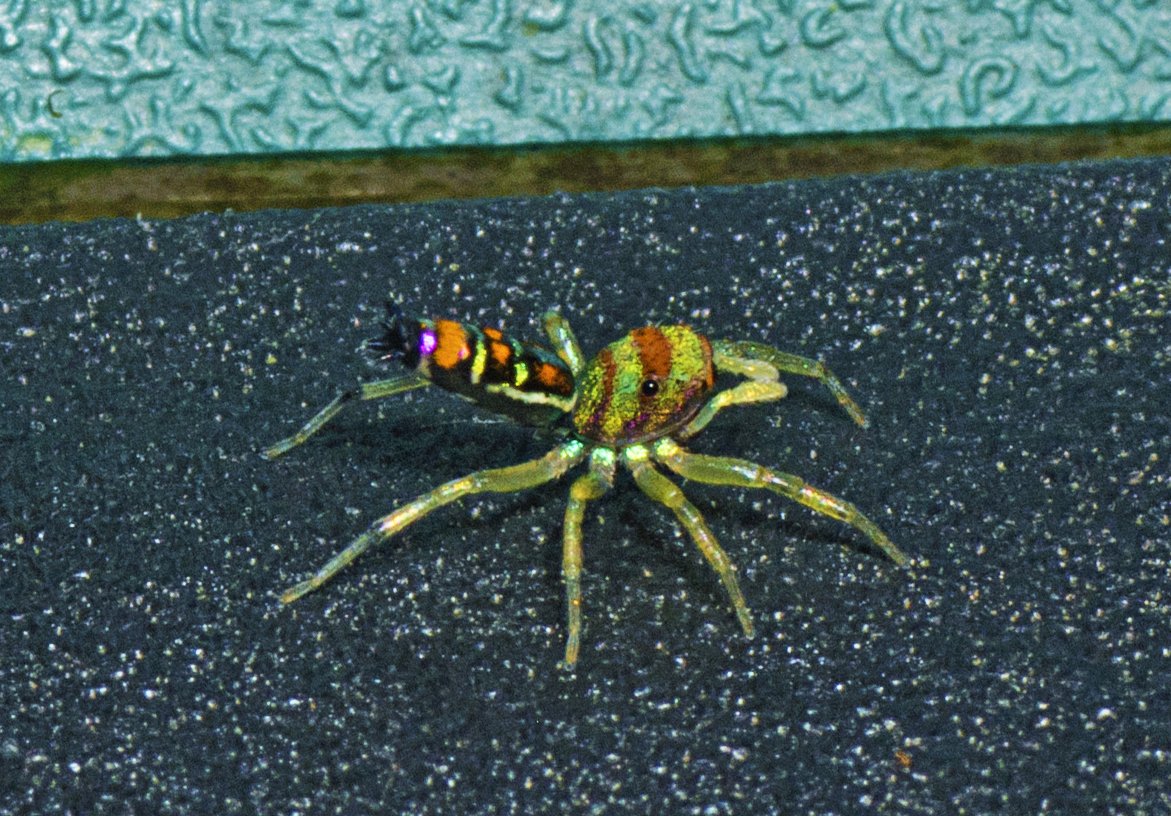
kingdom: Animalia
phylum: Arthropoda
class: Arachnida
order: Araneae
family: Salticidae
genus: Cosmophasis
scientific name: Cosmophasis micarioides
